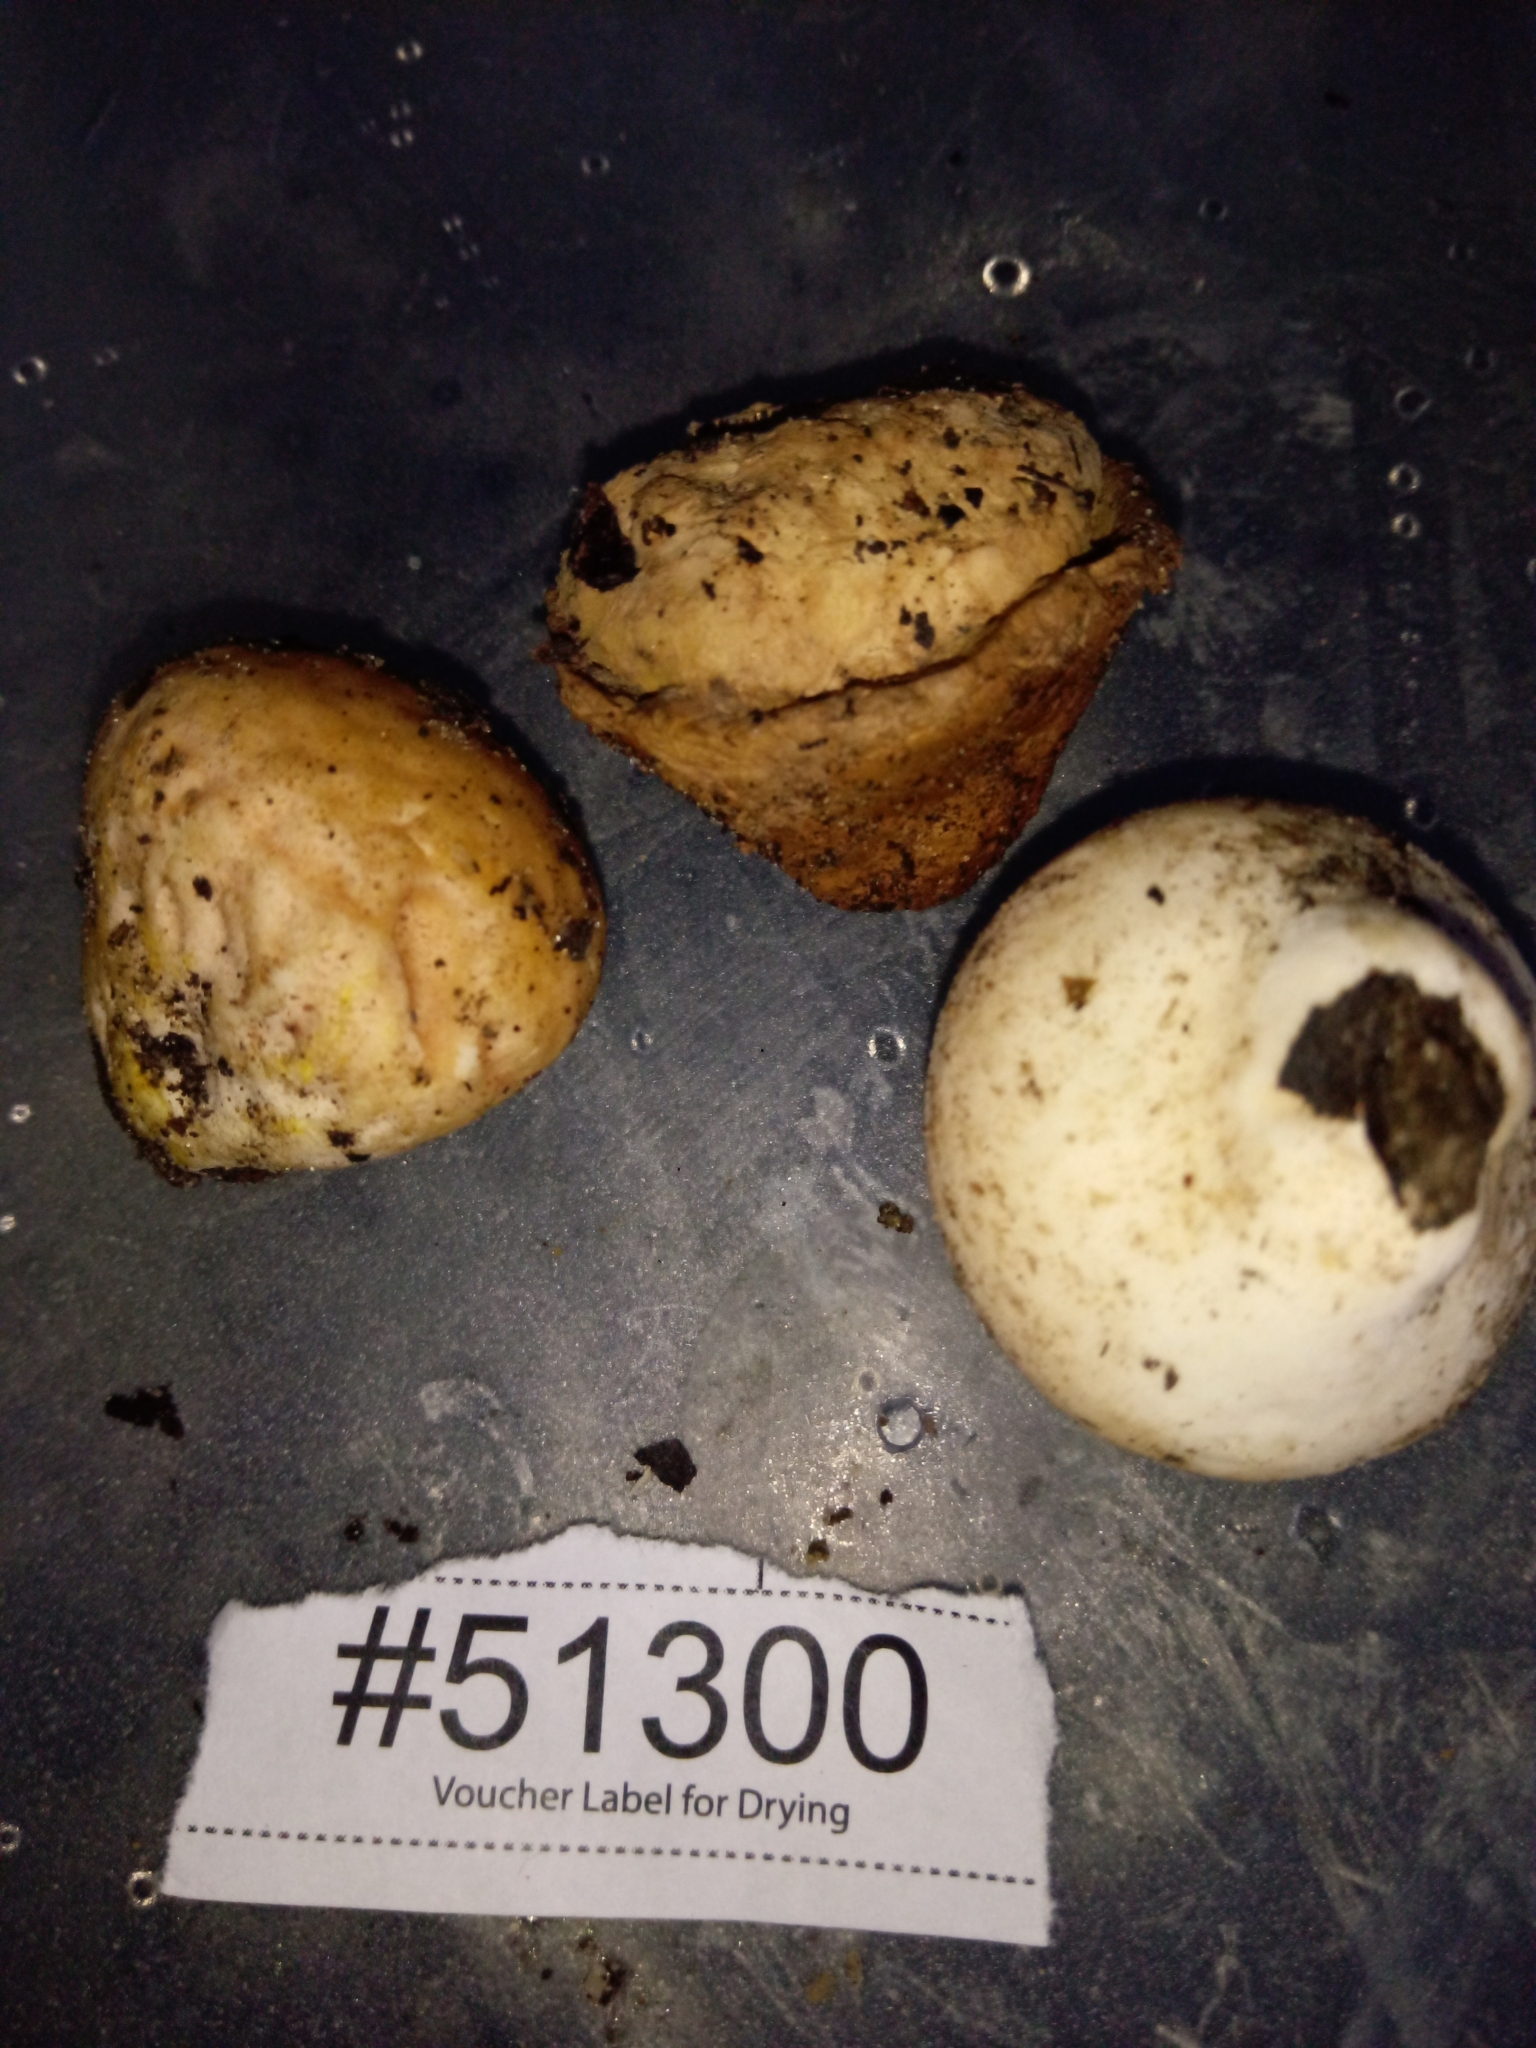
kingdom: Fungi
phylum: Basidiomycota
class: Agaricomycetes
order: Agaricales
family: Lycoperdaceae
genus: Calvatia
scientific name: Calvatia rugosa
